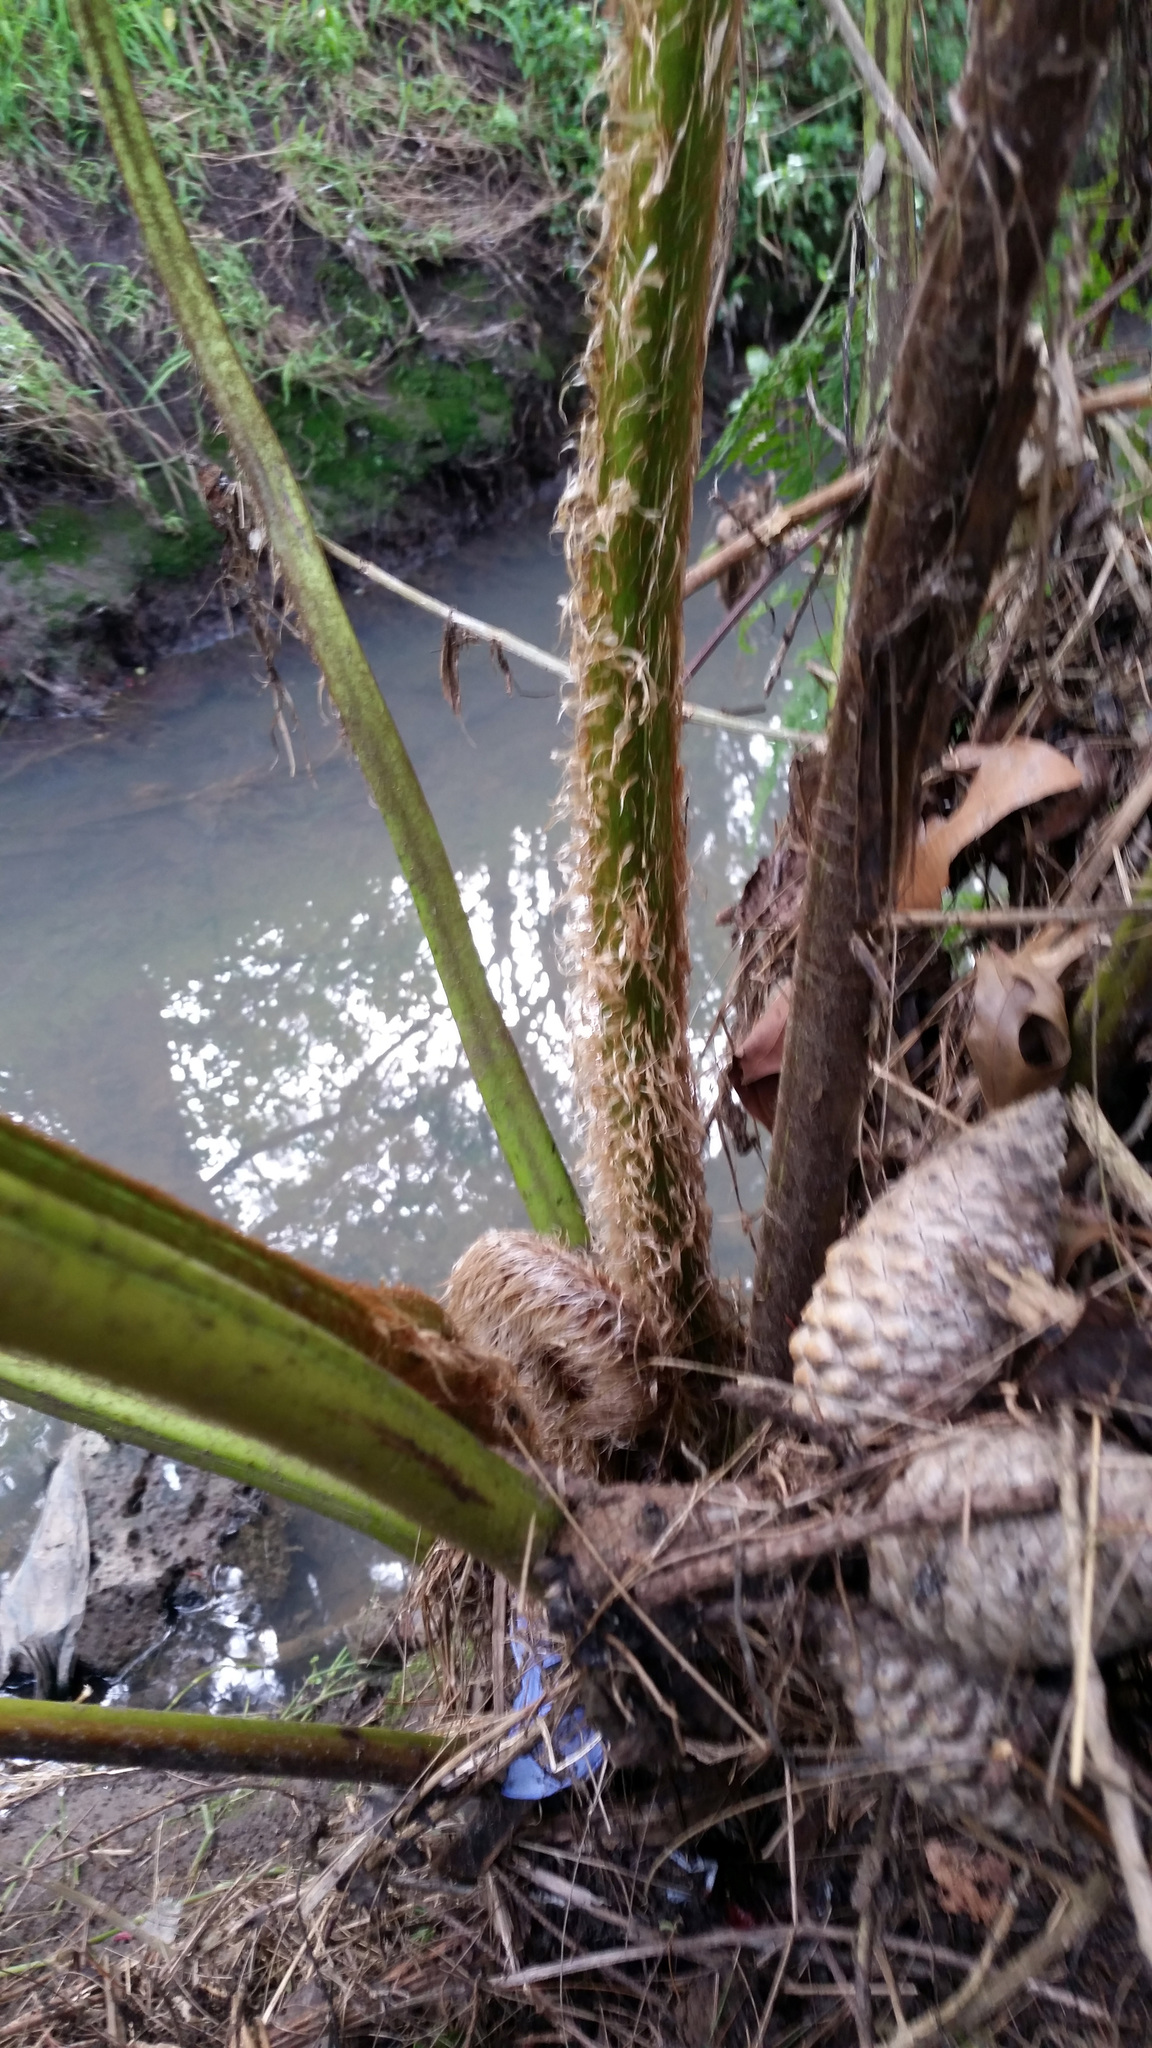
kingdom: Plantae
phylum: Tracheophyta
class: Polypodiopsida
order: Cyatheales
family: Cyatheaceae
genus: Sphaeropteris
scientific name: Sphaeropteris cooperi
